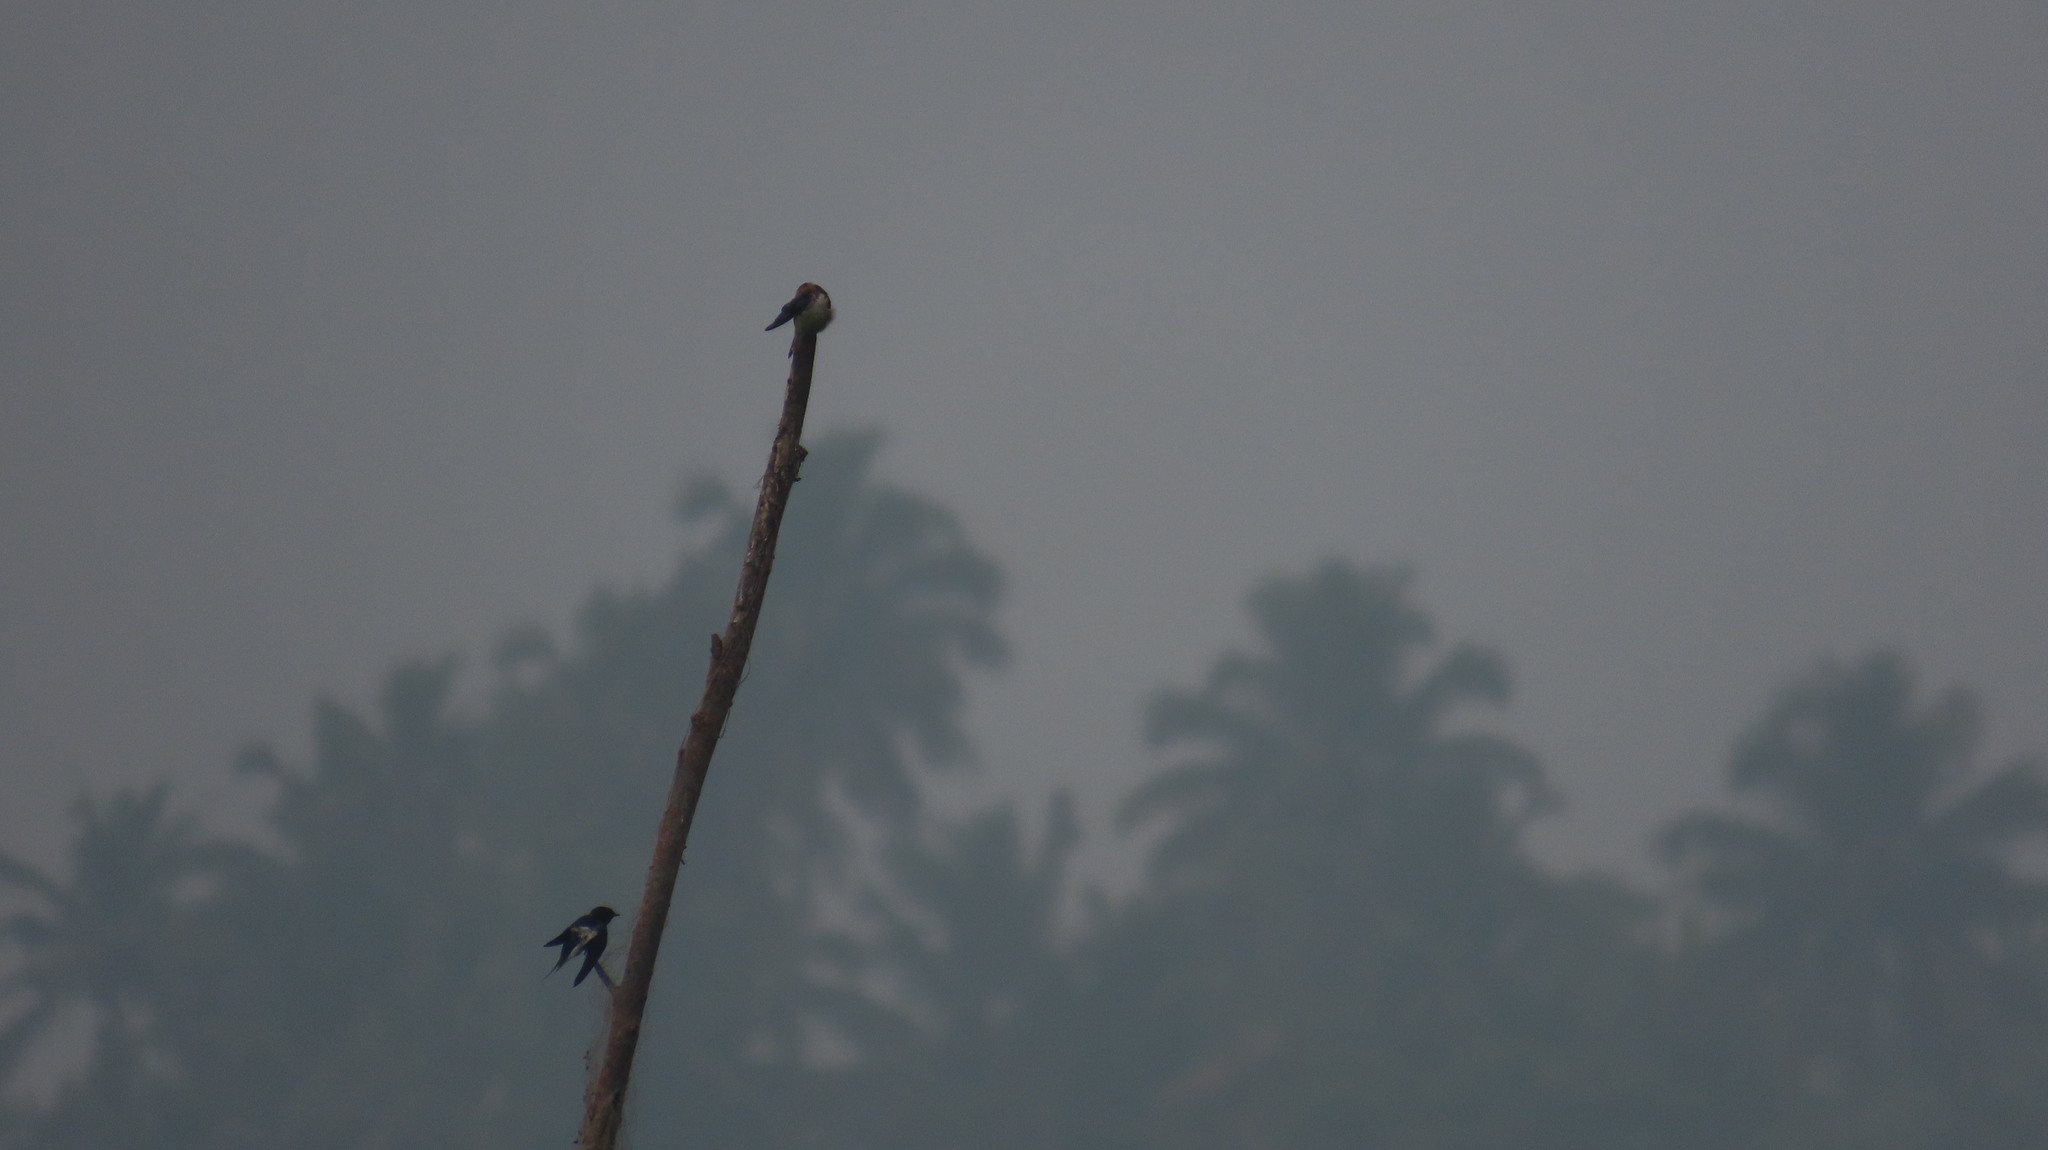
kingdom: Animalia
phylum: Chordata
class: Aves
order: Passeriformes
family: Hirundinidae
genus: Hirundo
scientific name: Hirundo rustica
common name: Barn swallow
